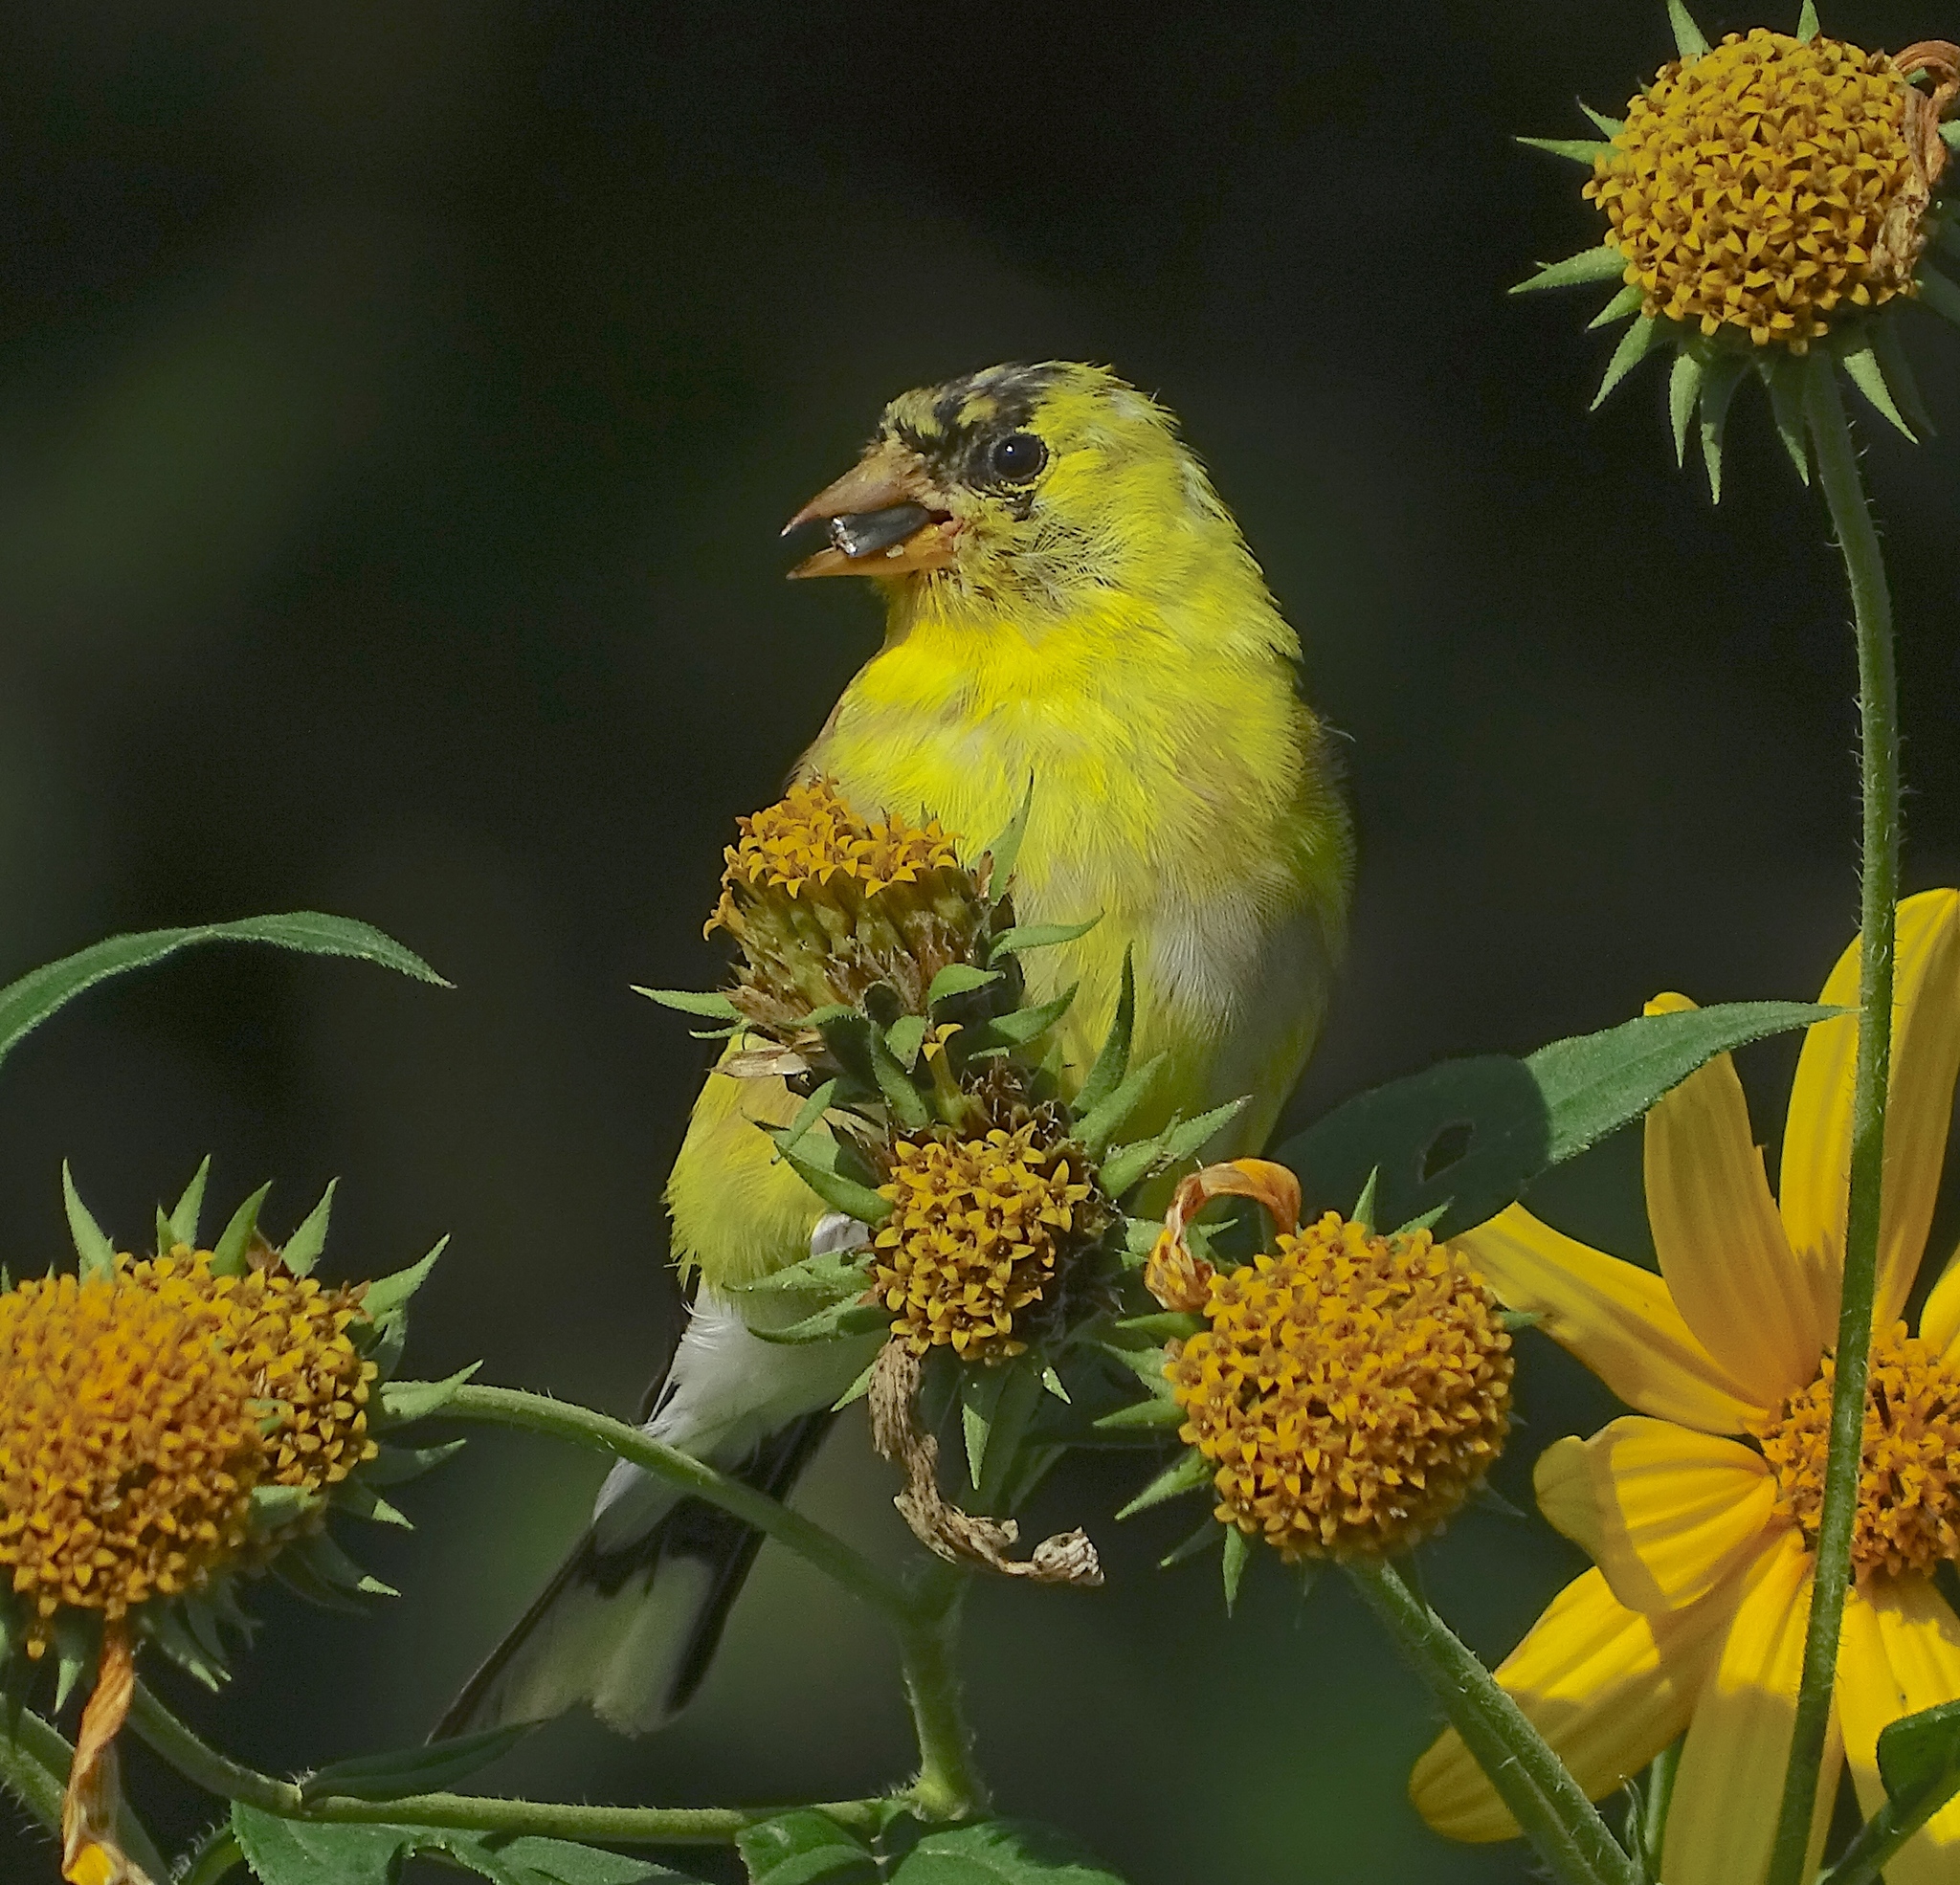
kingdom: Animalia
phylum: Chordata
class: Aves
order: Passeriformes
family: Fringillidae
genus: Spinus
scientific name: Spinus tristis
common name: American goldfinch
